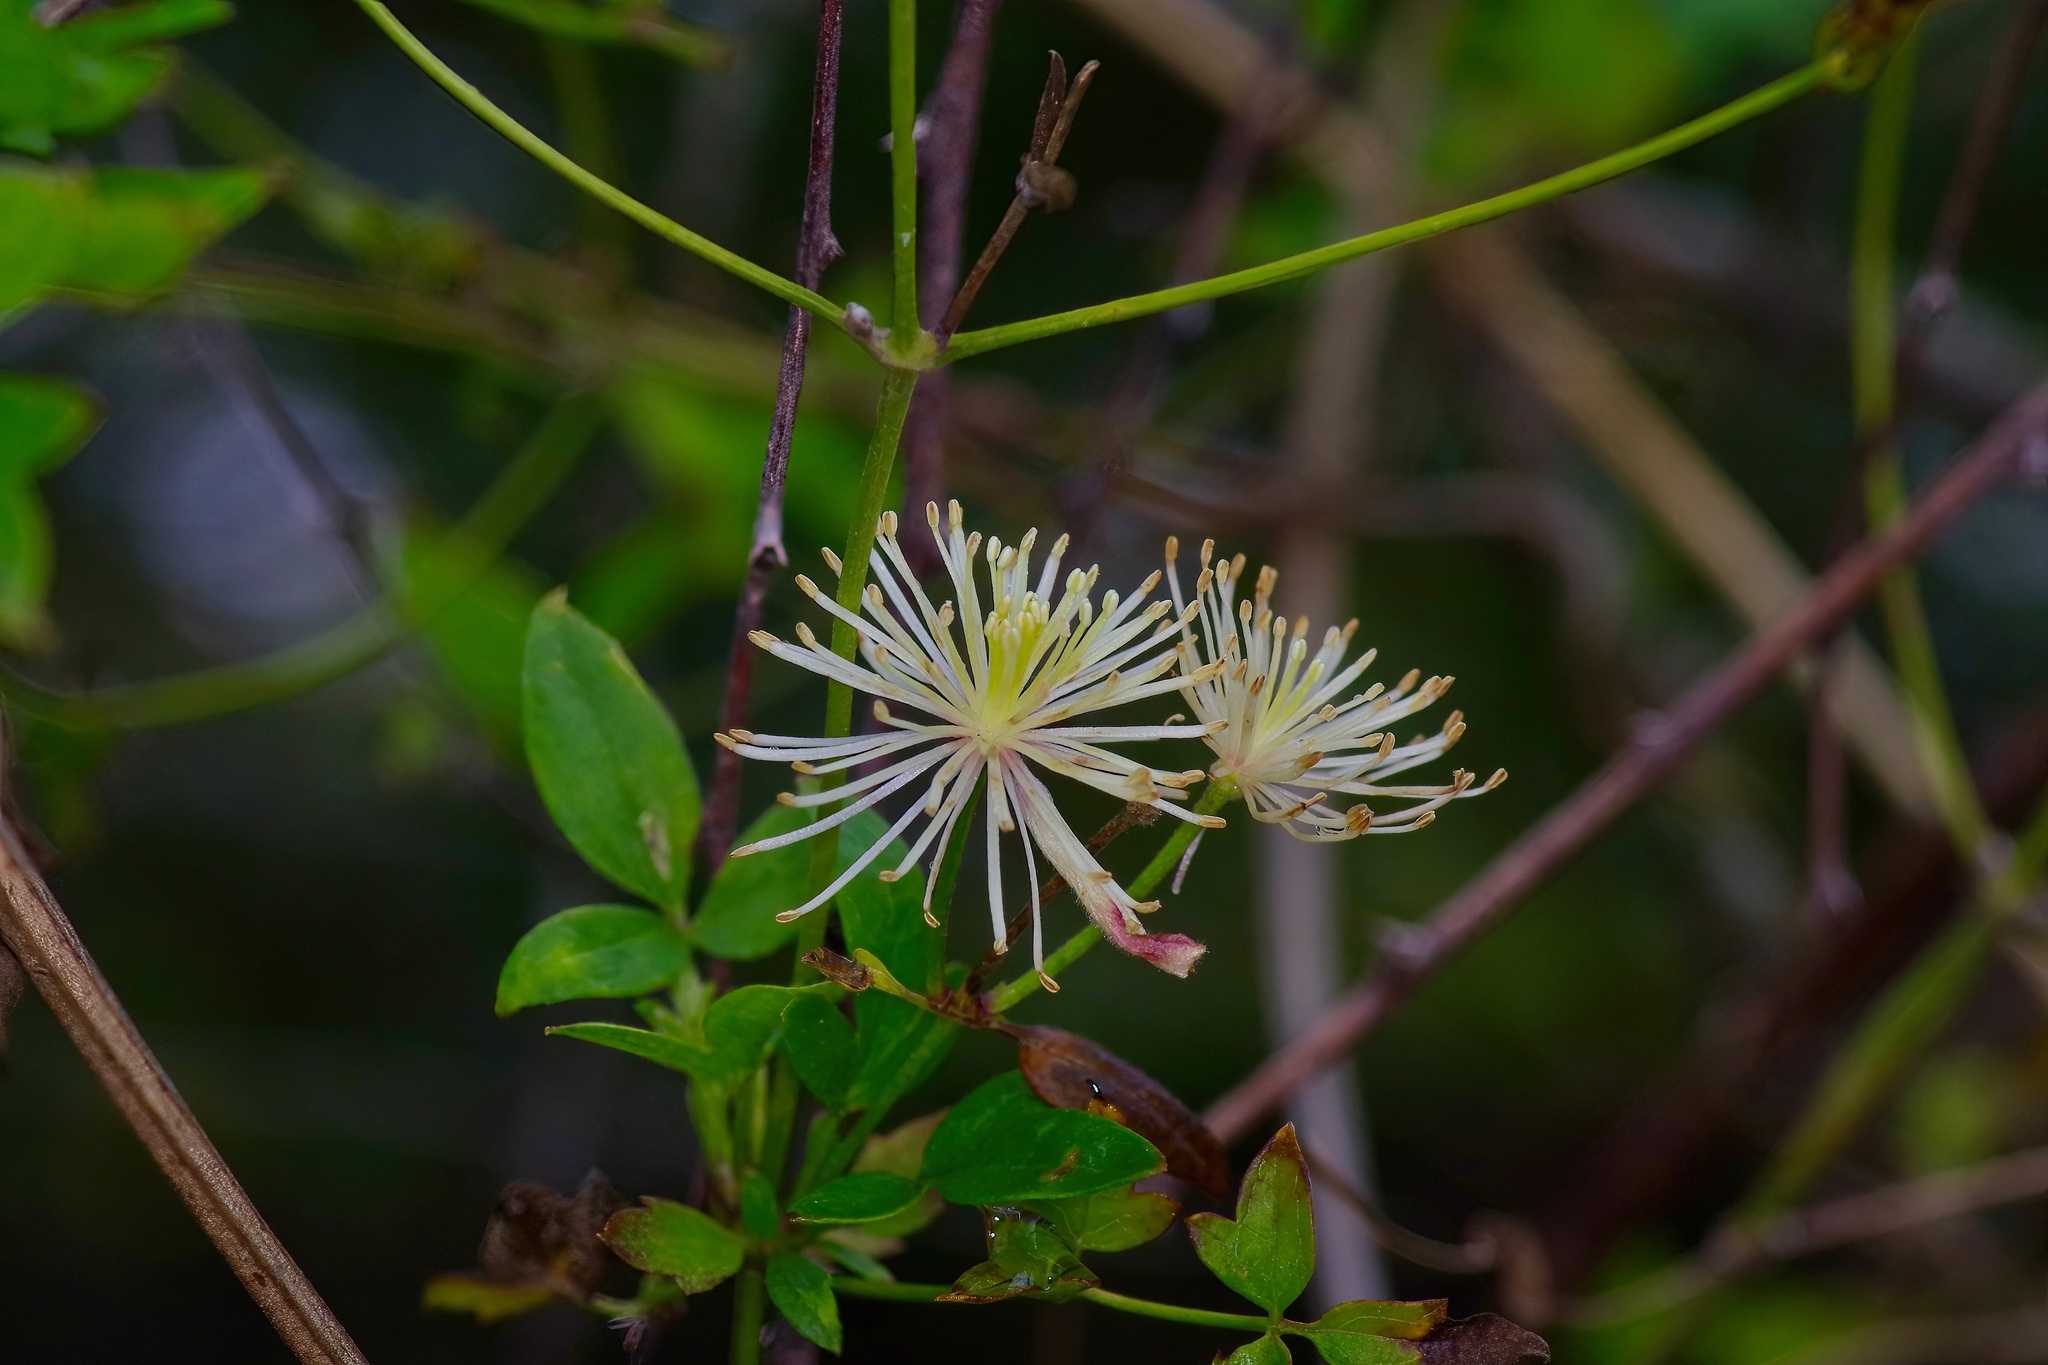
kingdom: Plantae
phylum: Tracheophyta
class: Magnoliopsida
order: Ranunculales
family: Ranunculaceae
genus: Clematis
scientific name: Clematis drummondii
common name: Texas virgin's bower
